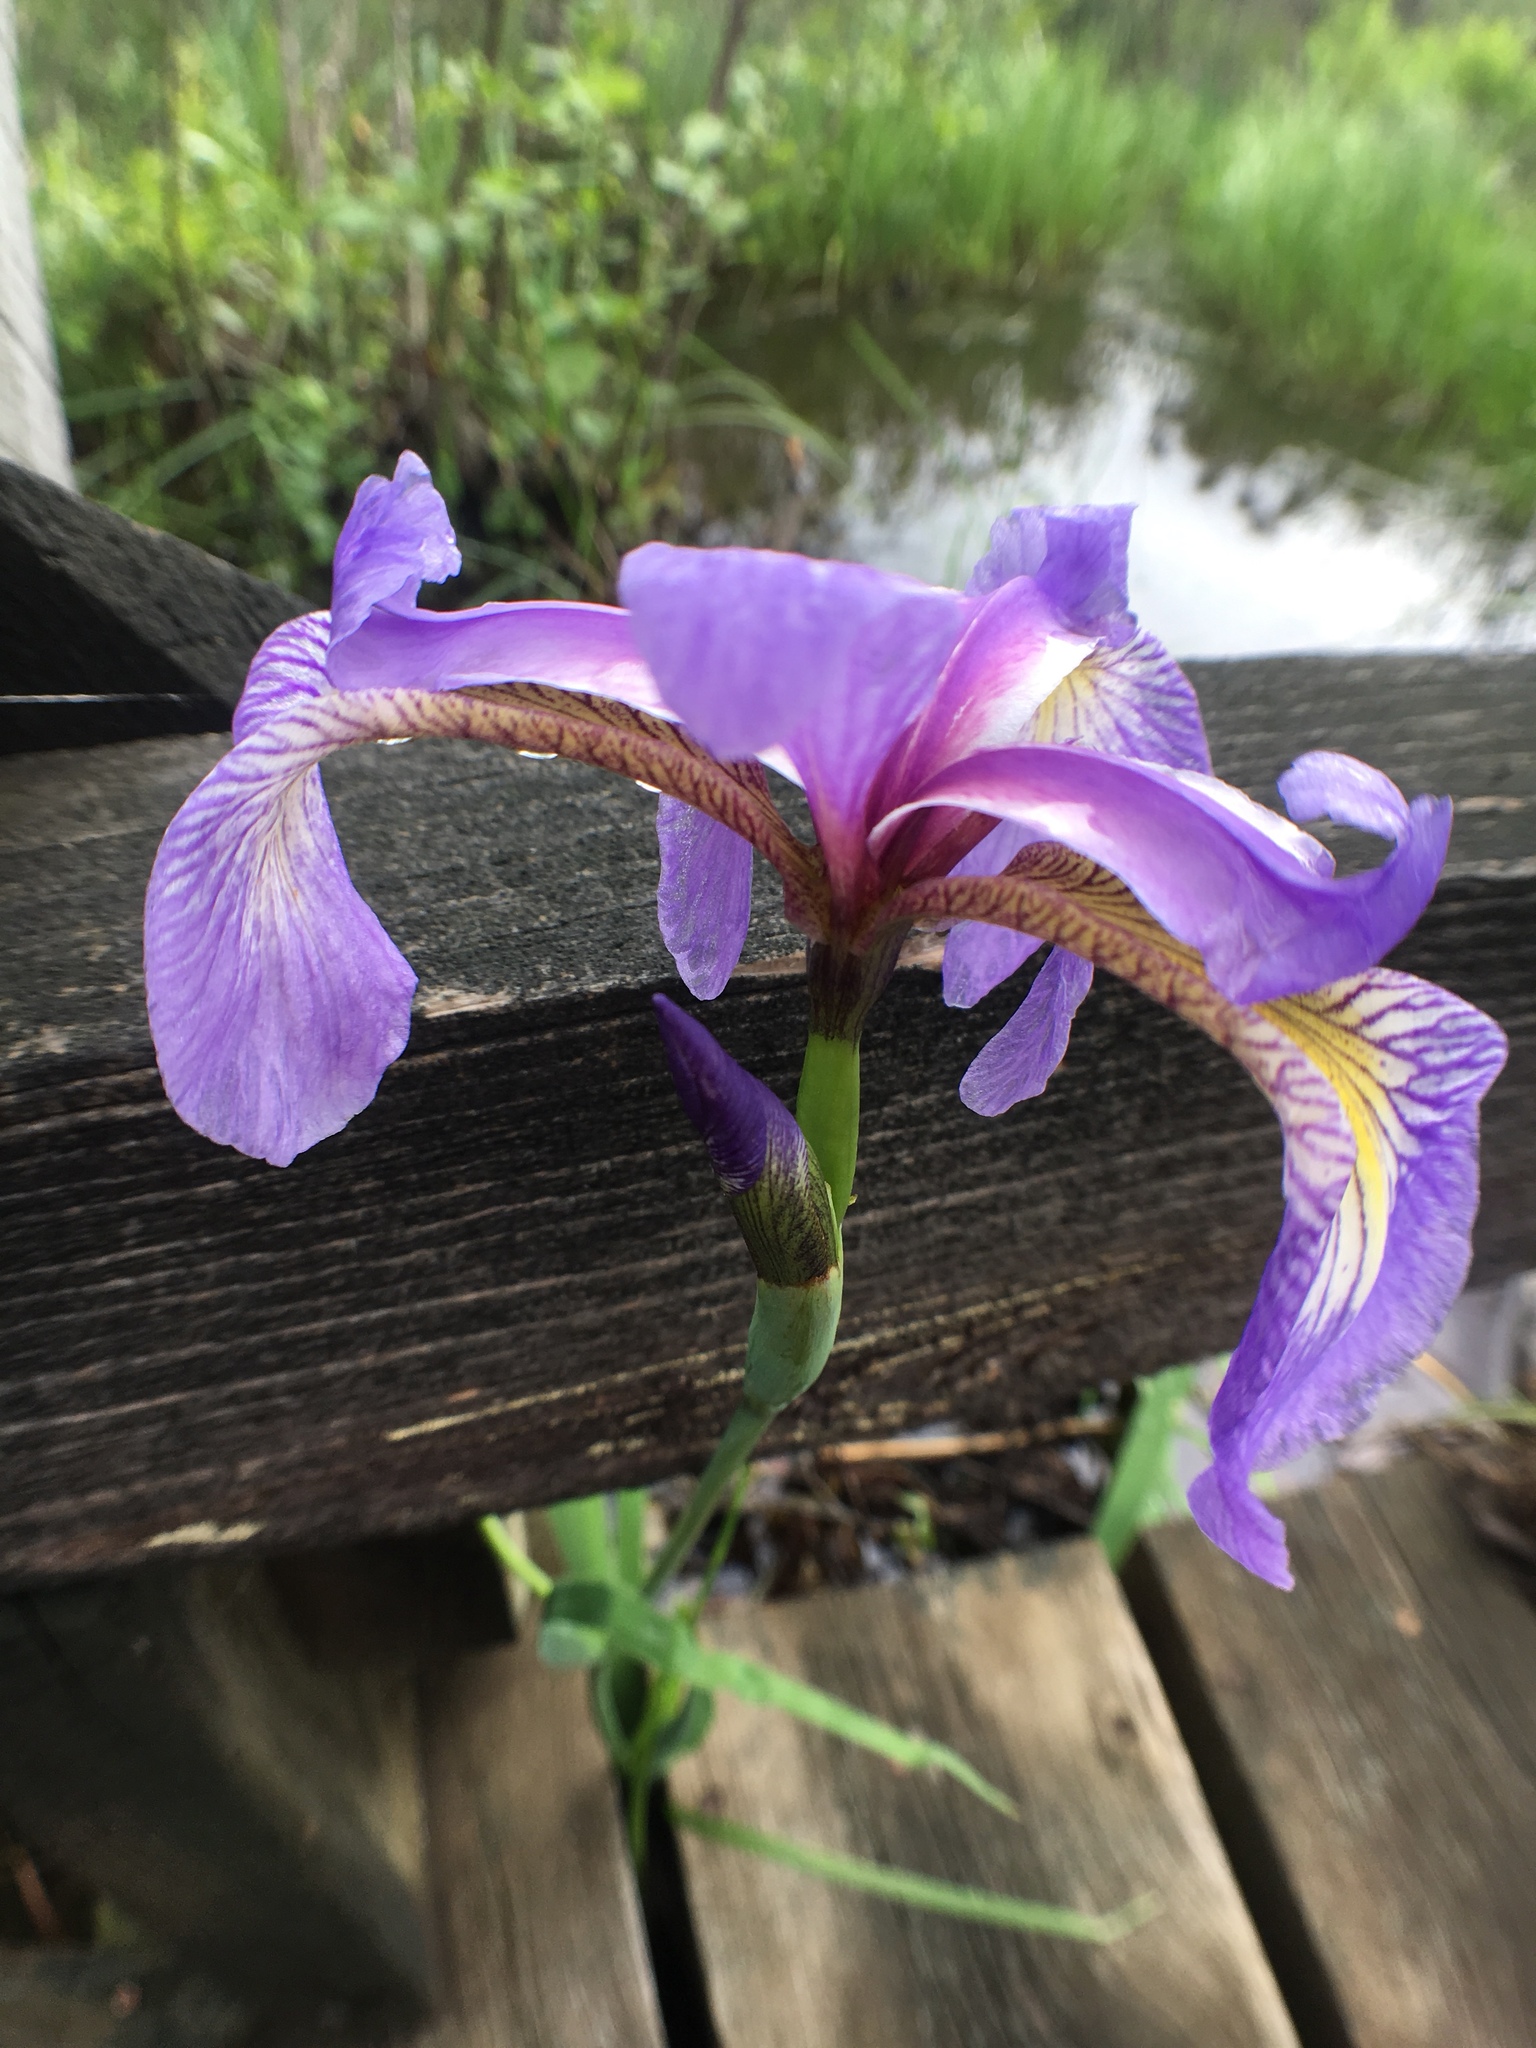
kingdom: Plantae
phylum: Tracheophyta
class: Liliopsida
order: Asparagales
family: Iridaceae
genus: Iris
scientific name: Iris versicolor
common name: Purple iris
